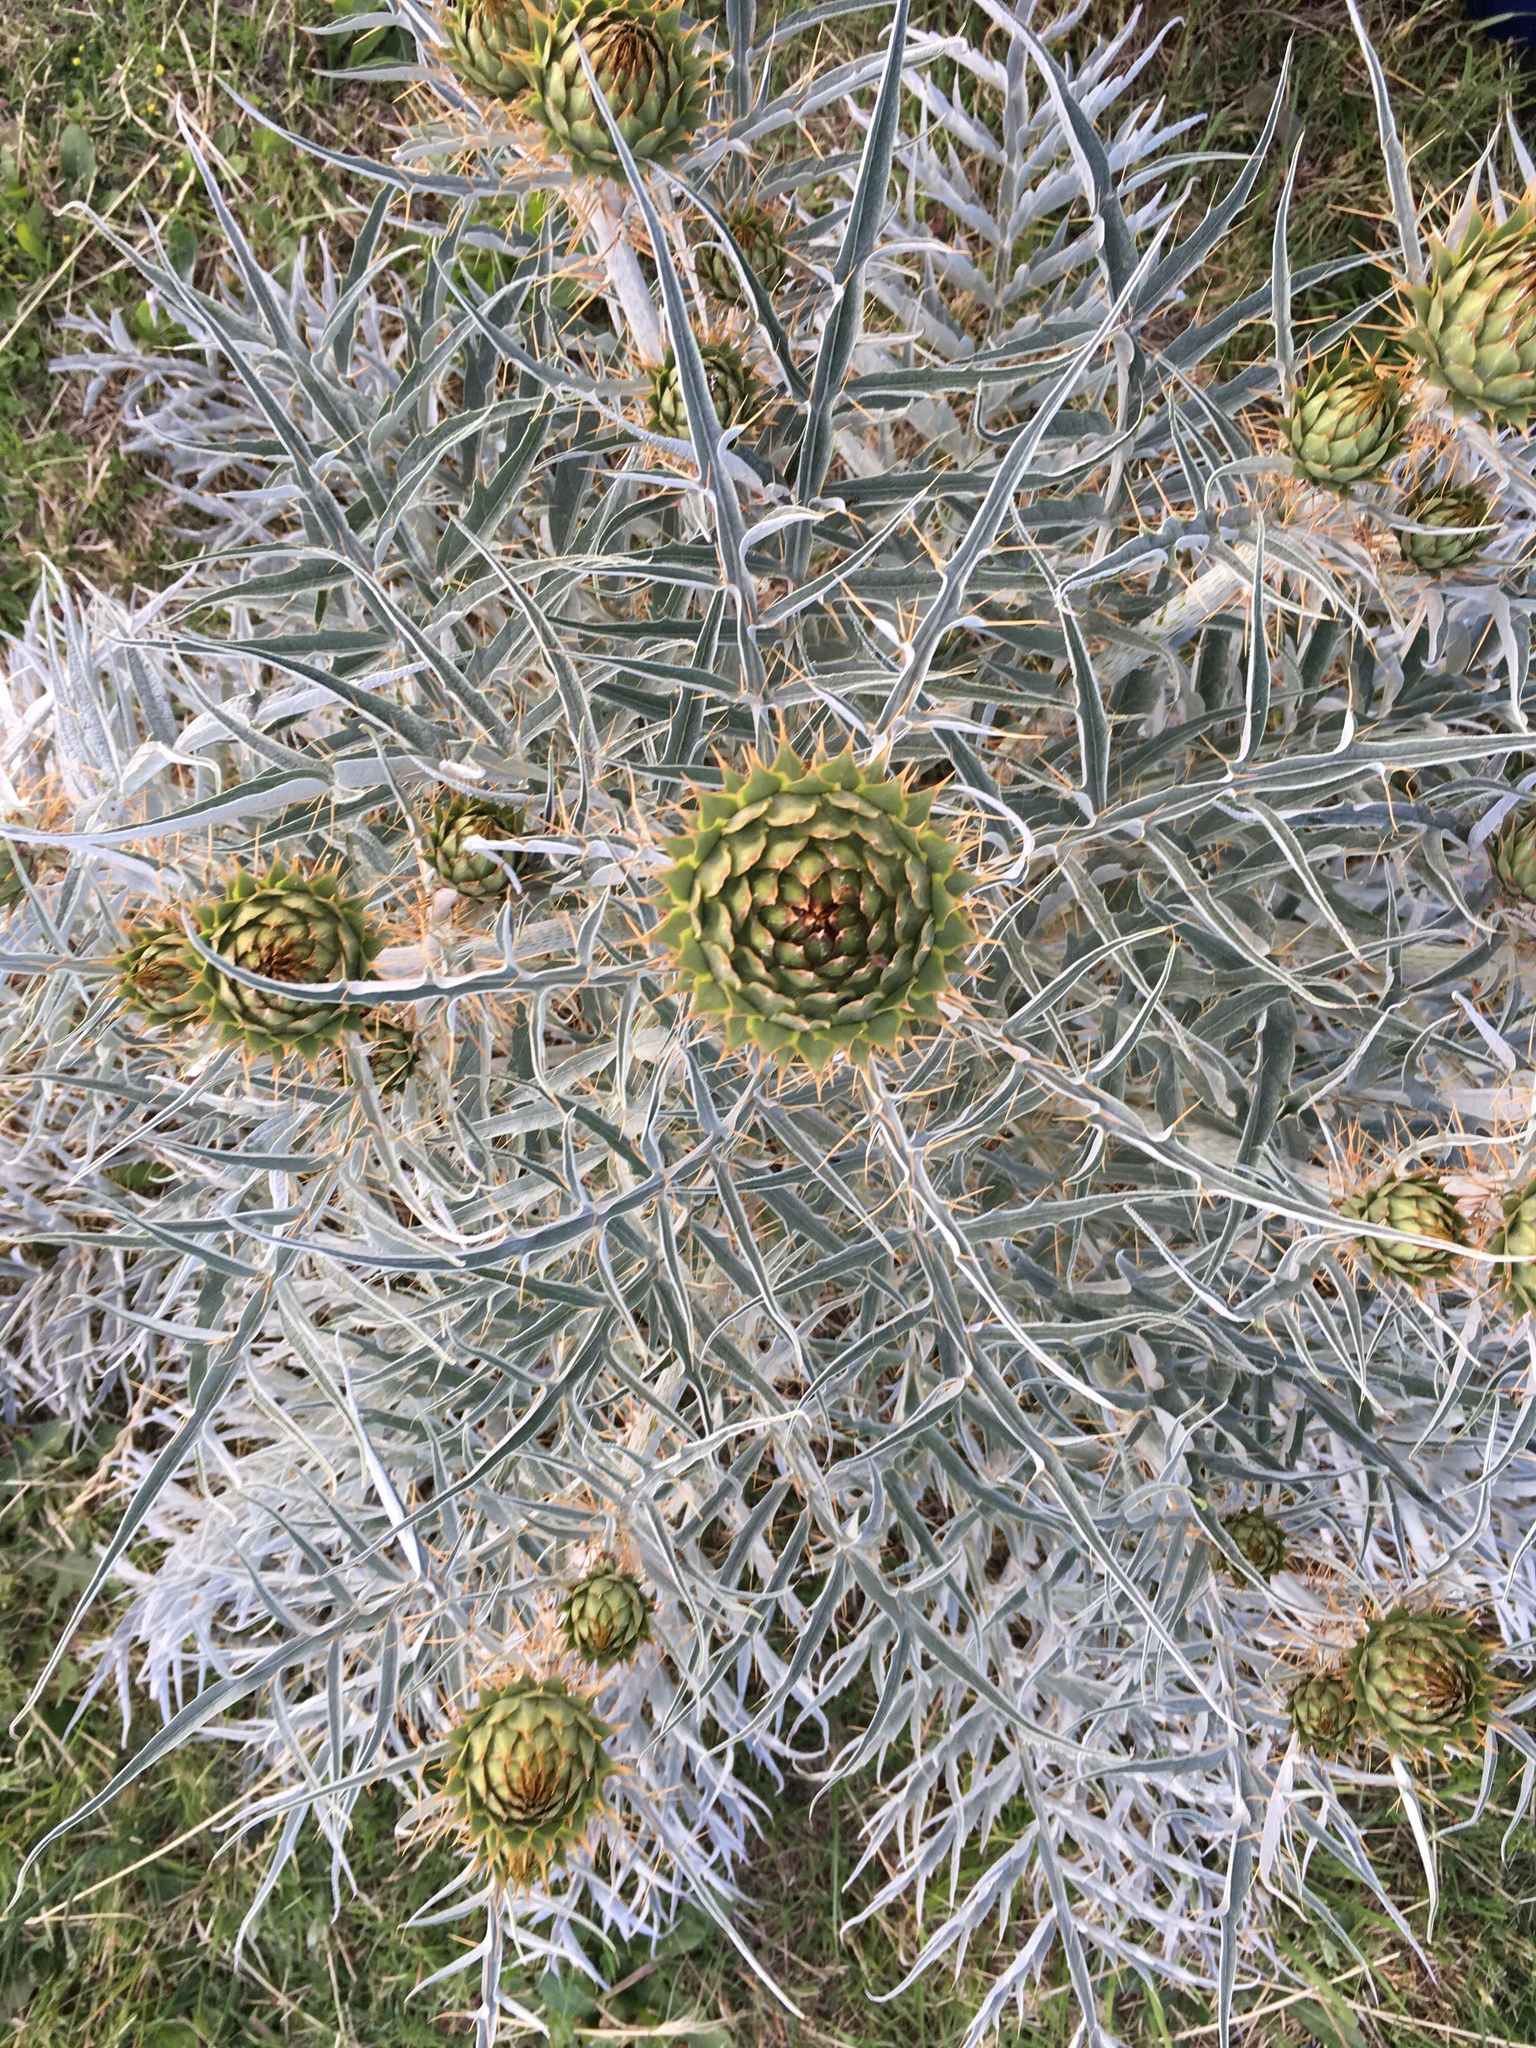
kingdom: Plantae
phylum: Tracheophyta
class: Magnoliopsida
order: Asterales
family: Asteraceae
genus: Cynara
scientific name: Cynara cardunculus
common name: Globe artichoke
